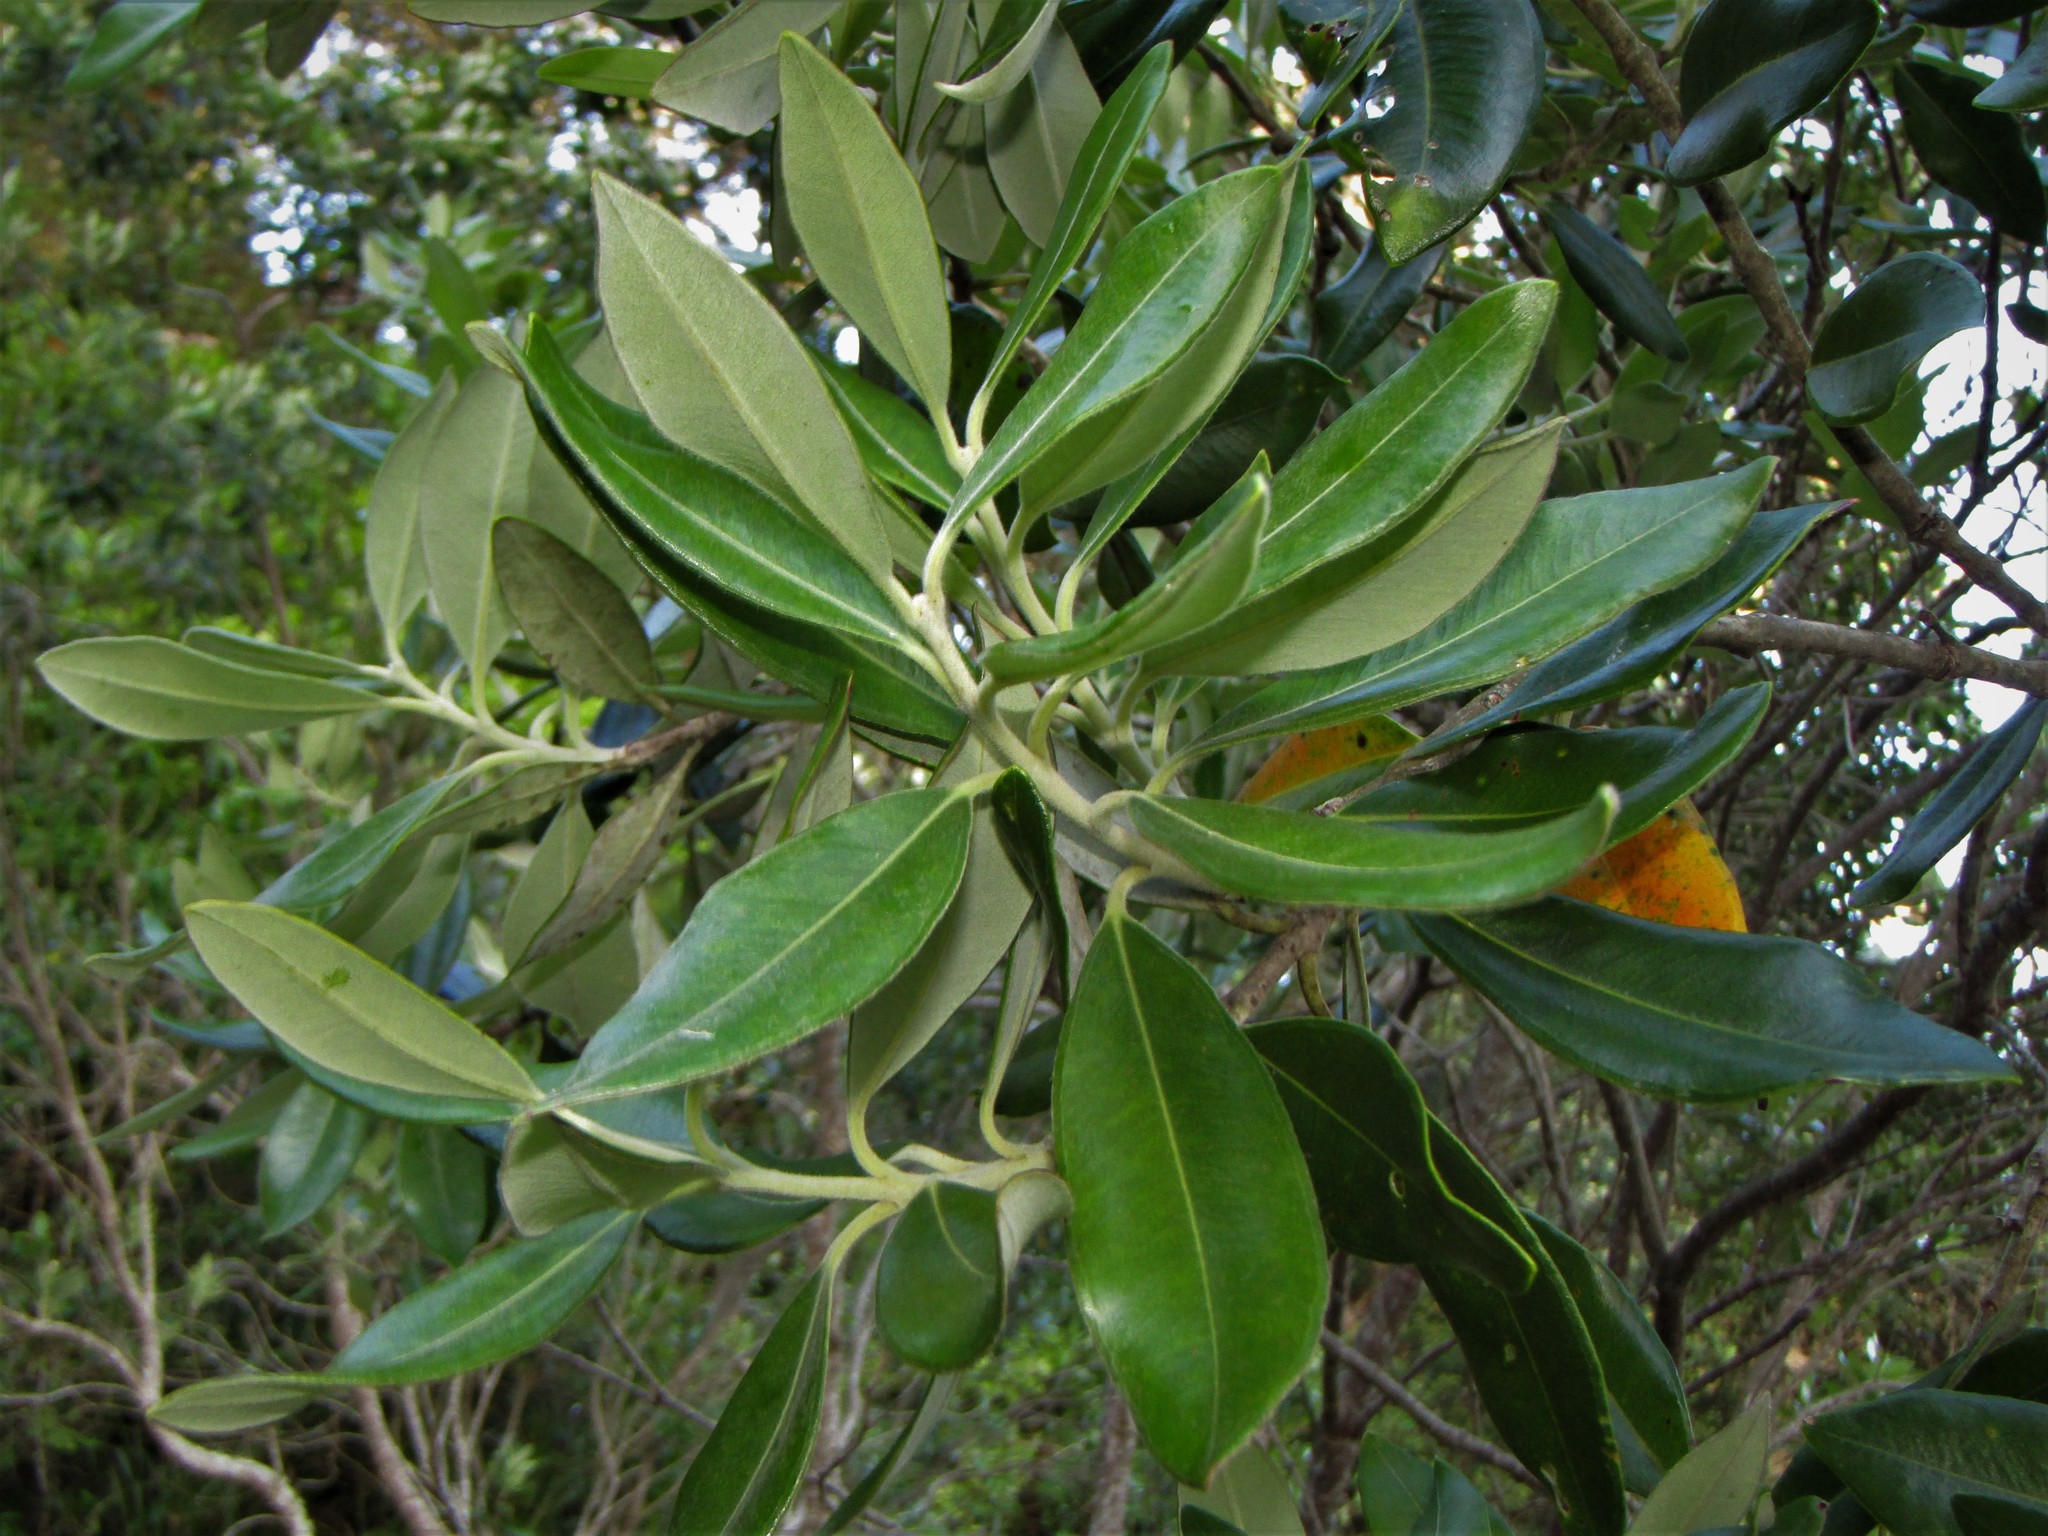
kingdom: Plantae
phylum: Tracheophyta
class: Magnoliopsida
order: Myrtales
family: Myrtaceae
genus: Metrosideros
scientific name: Metrosideros excelsa
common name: New zealand christmastree
